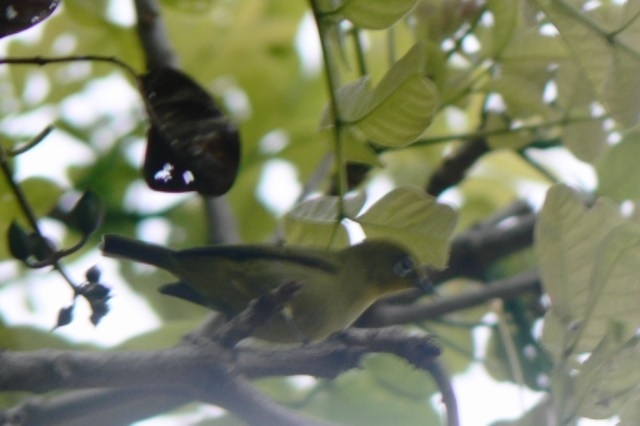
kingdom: Animalia
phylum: Chordata
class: Aves
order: Passeriformes
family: Zosteropidae
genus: Zosterops
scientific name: Zosterops anderssoni
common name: Southern yellow white-eye
